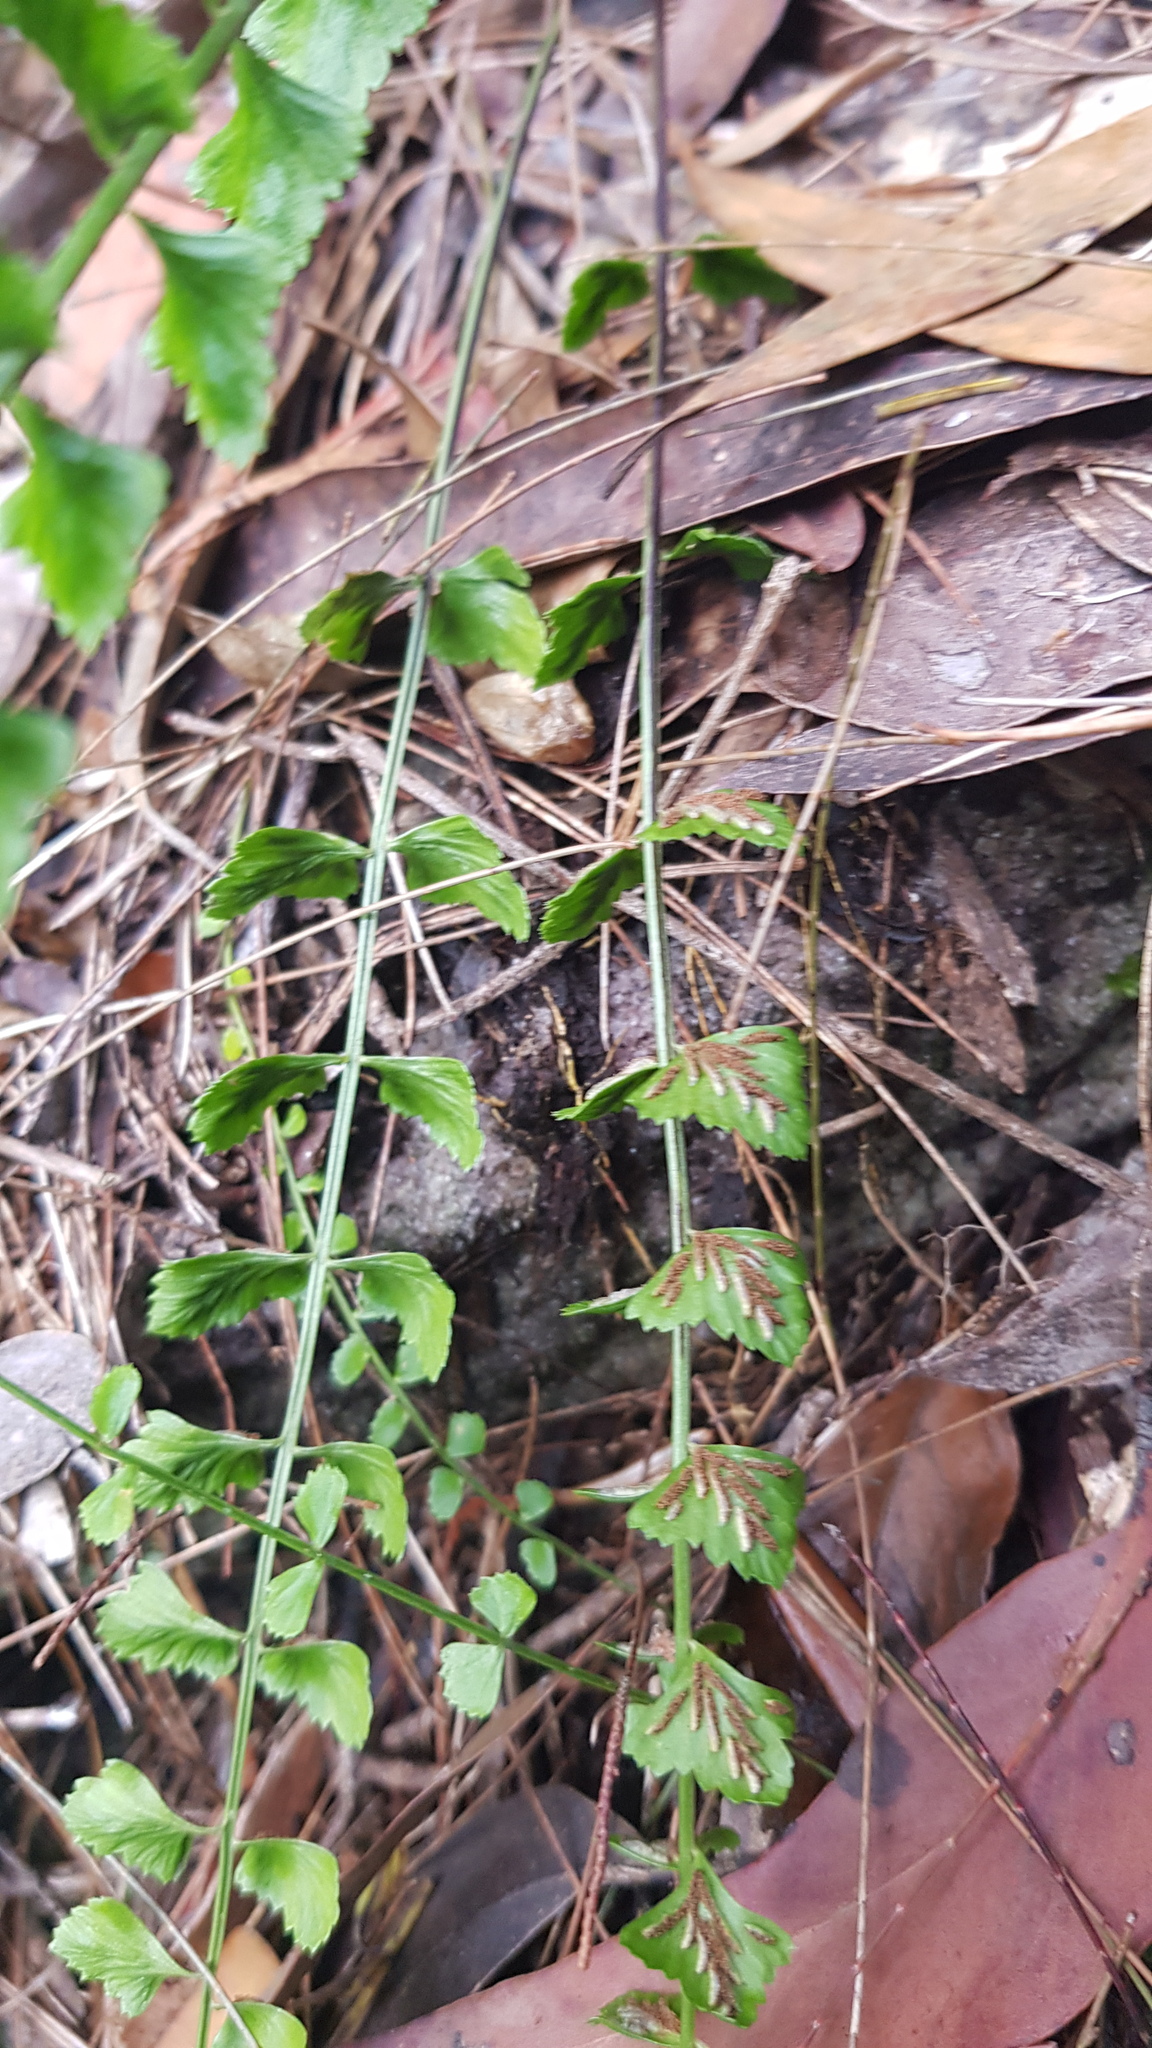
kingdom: Plantae
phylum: Tracheophyta
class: Polypodiopsida
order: Polypodiales
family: Aspleniaceae
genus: Asplenium
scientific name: Asplenium flabellifolium
